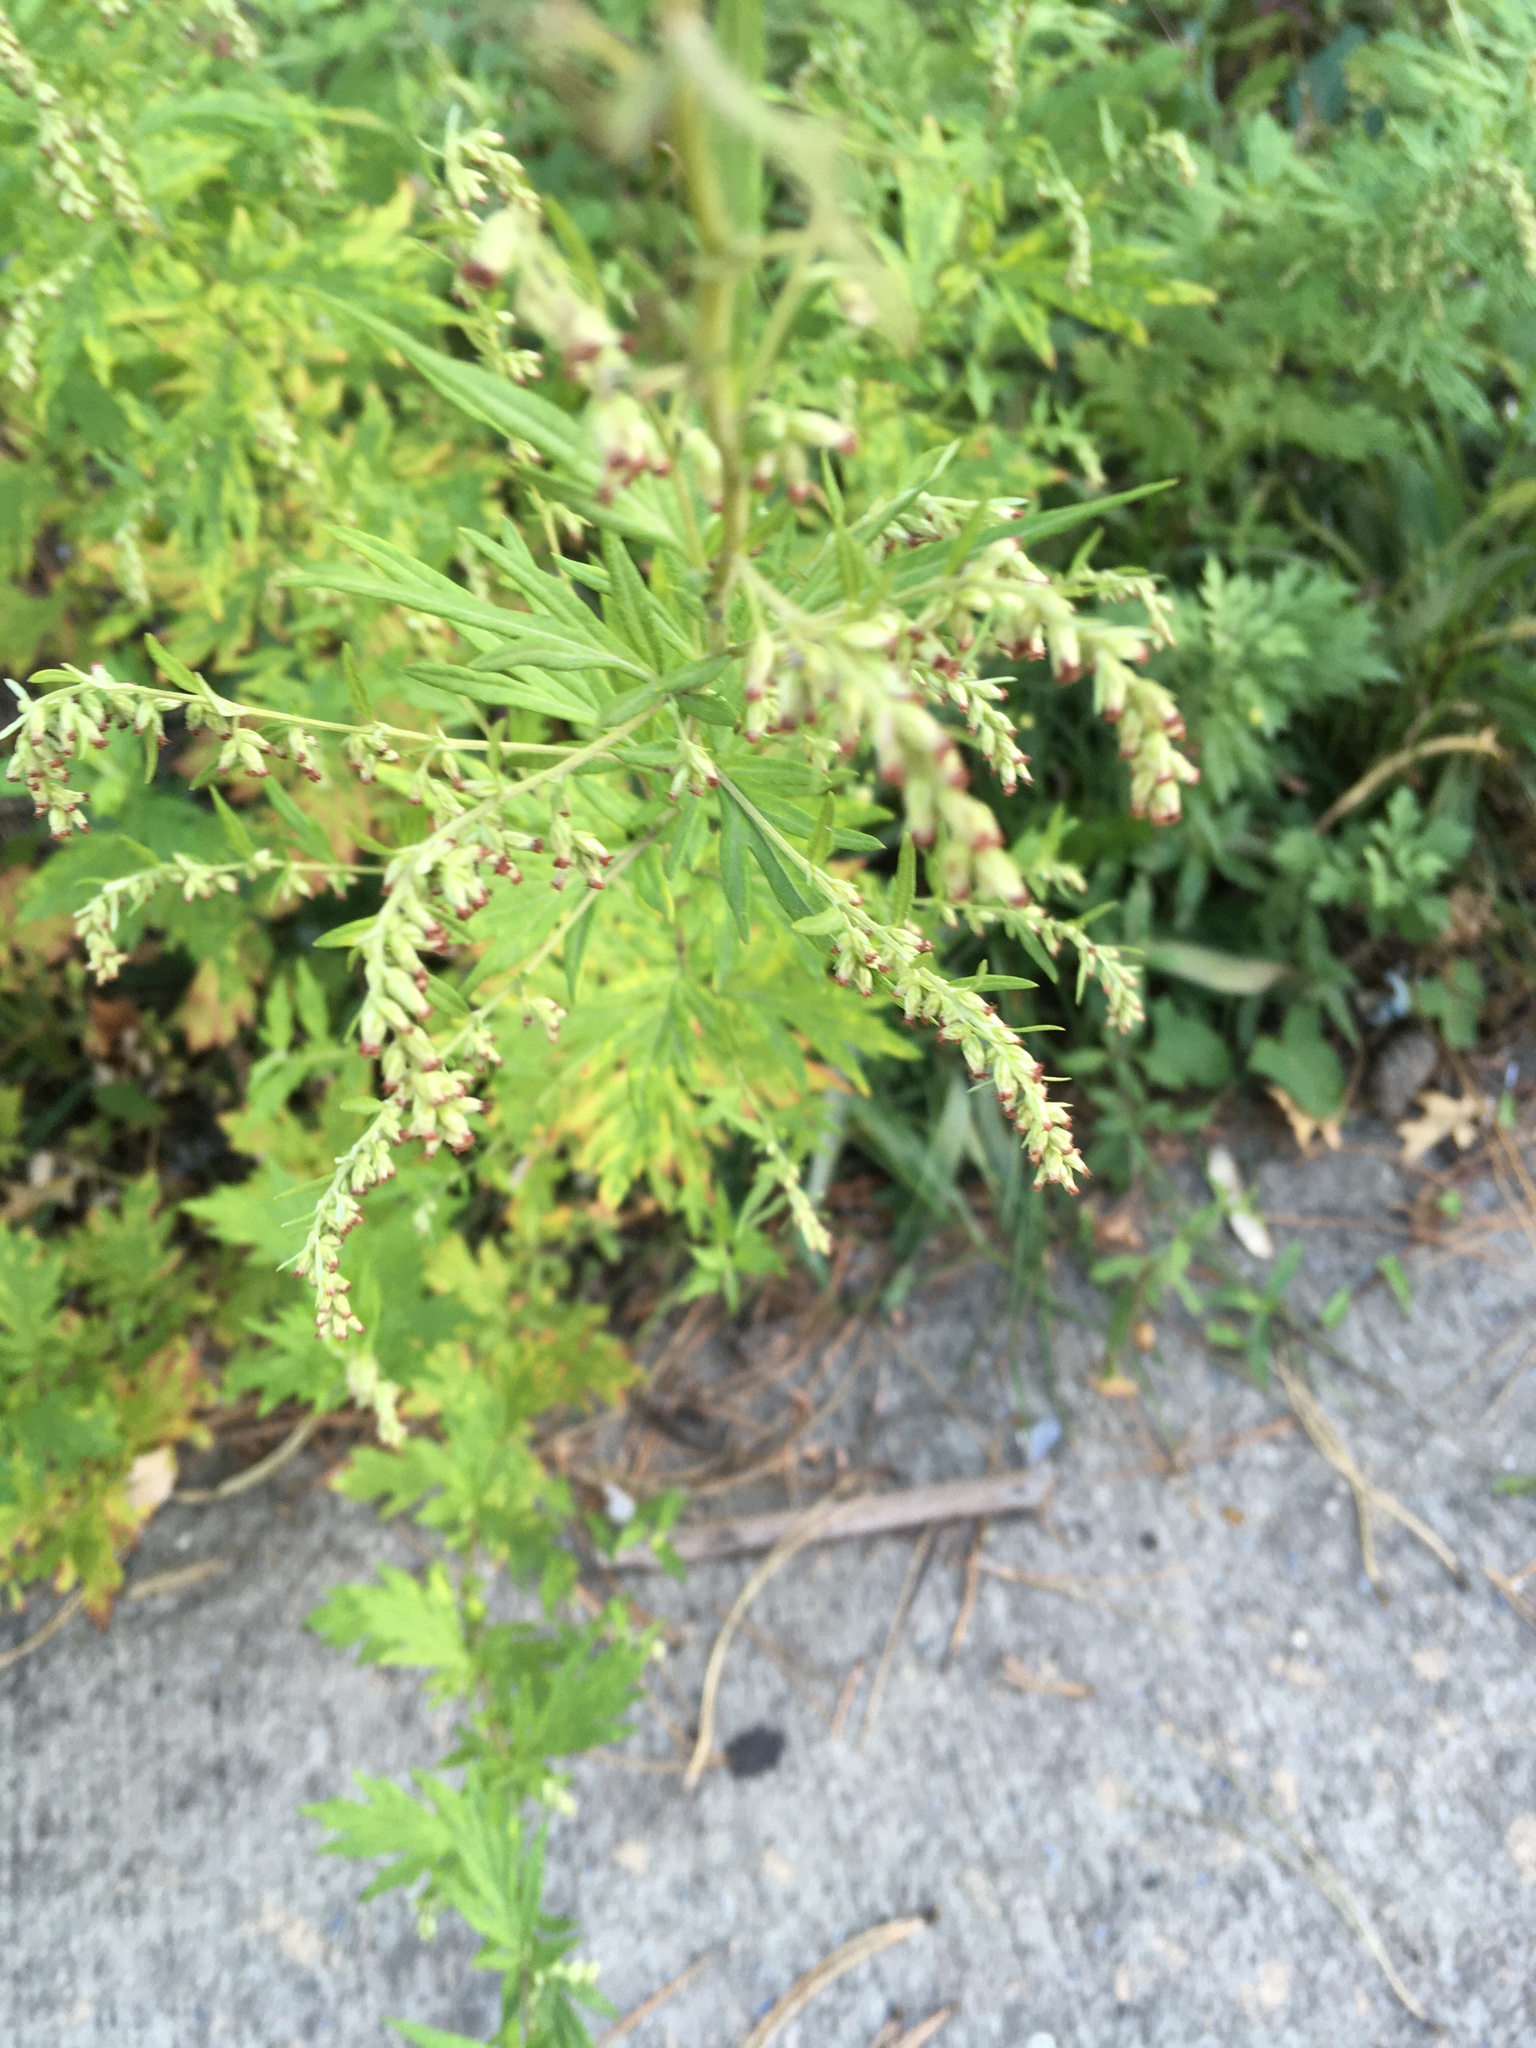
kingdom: Plantae
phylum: Tracheophyta
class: Magnoliopsida
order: Asterales
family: Asteraceae
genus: Artemisia
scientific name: Artemisia vulgaris
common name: Mugwort
